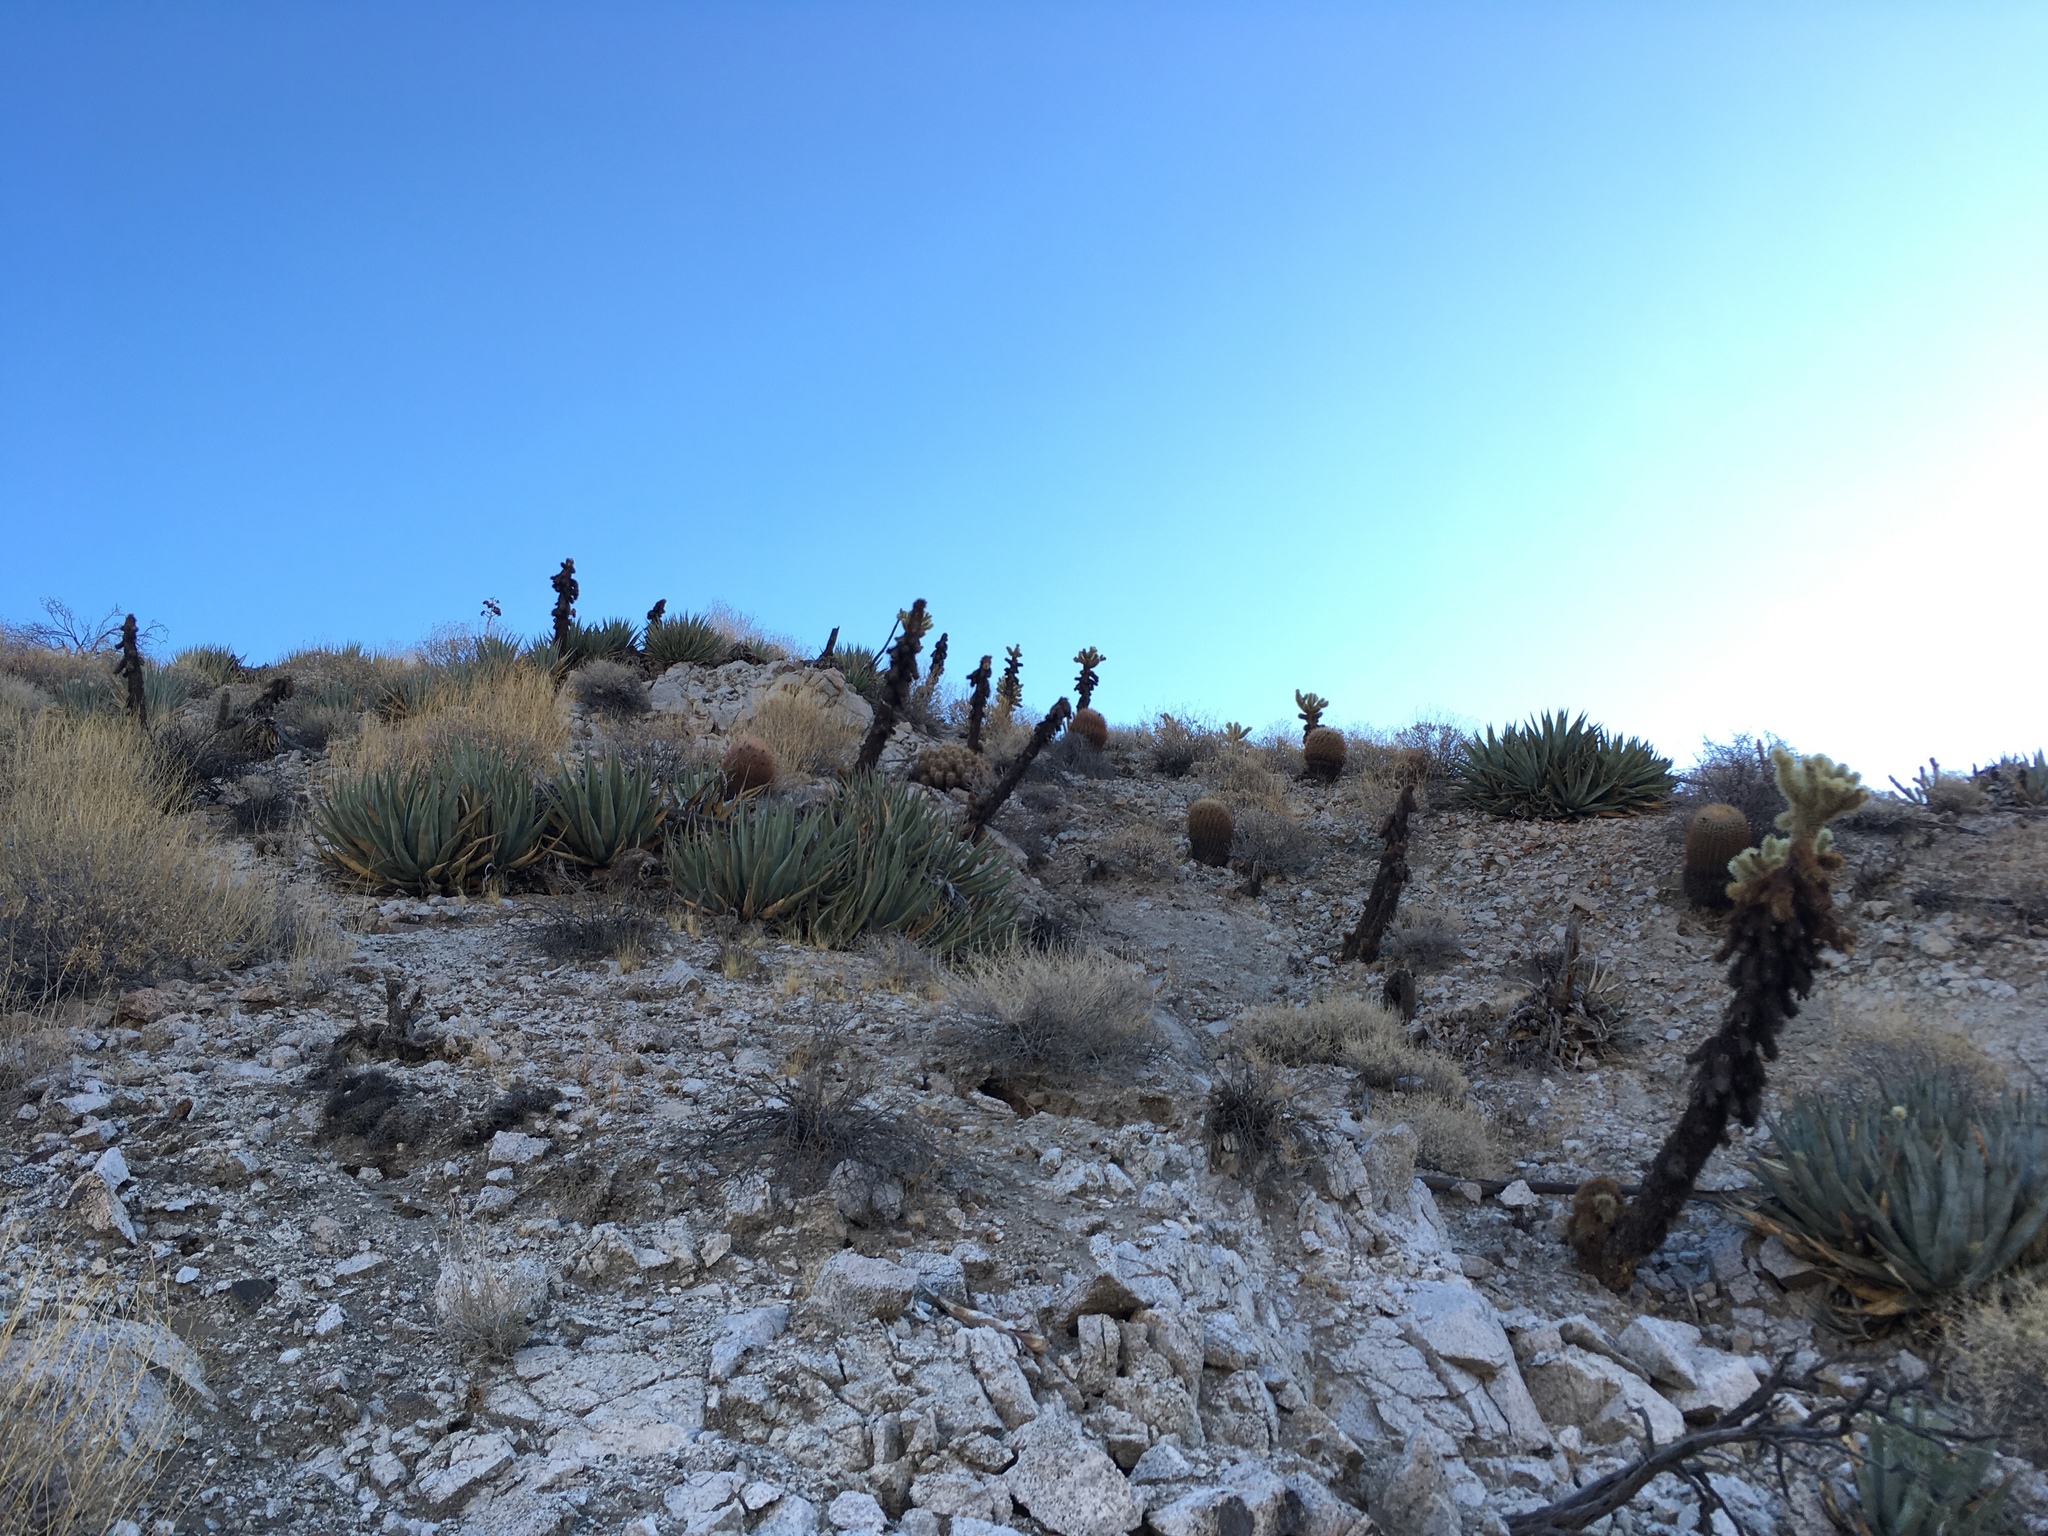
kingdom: Plantae
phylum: Tracheophyta
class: Magnoliopsida
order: Caryophyllales
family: Cactaceae
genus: Cylindropuntia
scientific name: Cylindropuntia fosbergii
